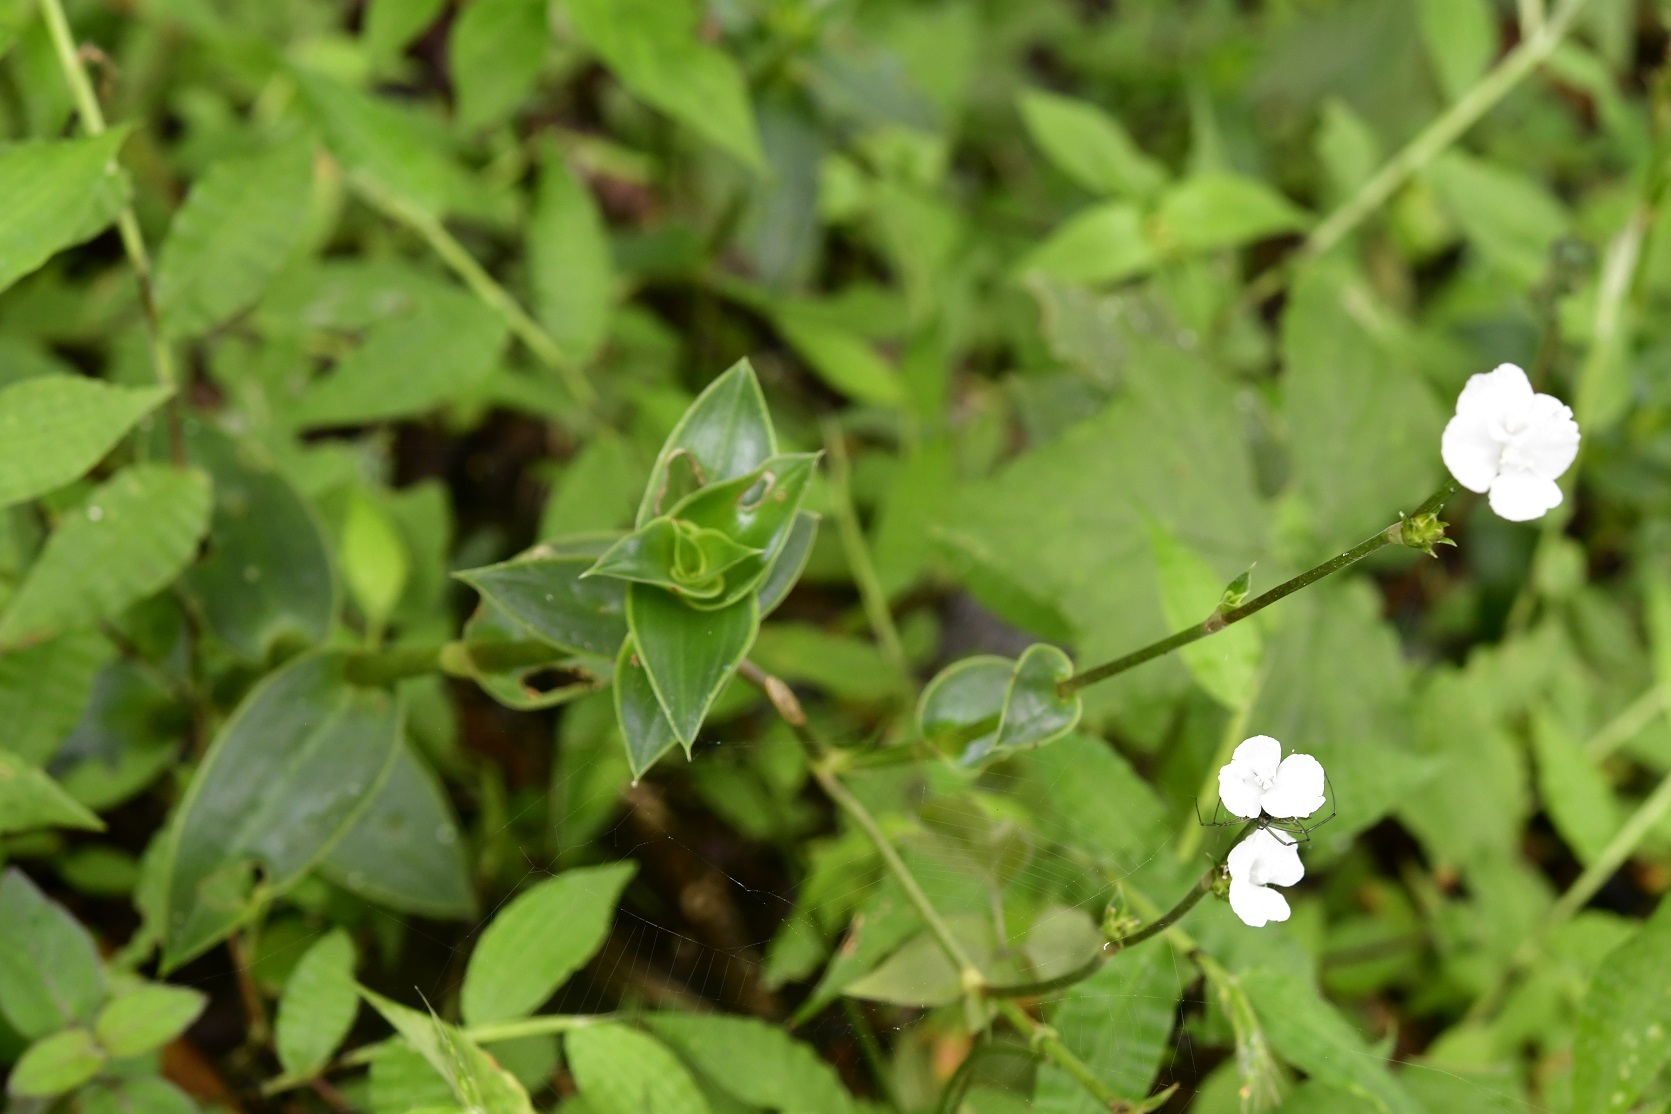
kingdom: Plantae
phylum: Tracheophyta
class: Liliopsida
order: Commelinales
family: Commelinaceae
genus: Callisia
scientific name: Callisia gentlei
